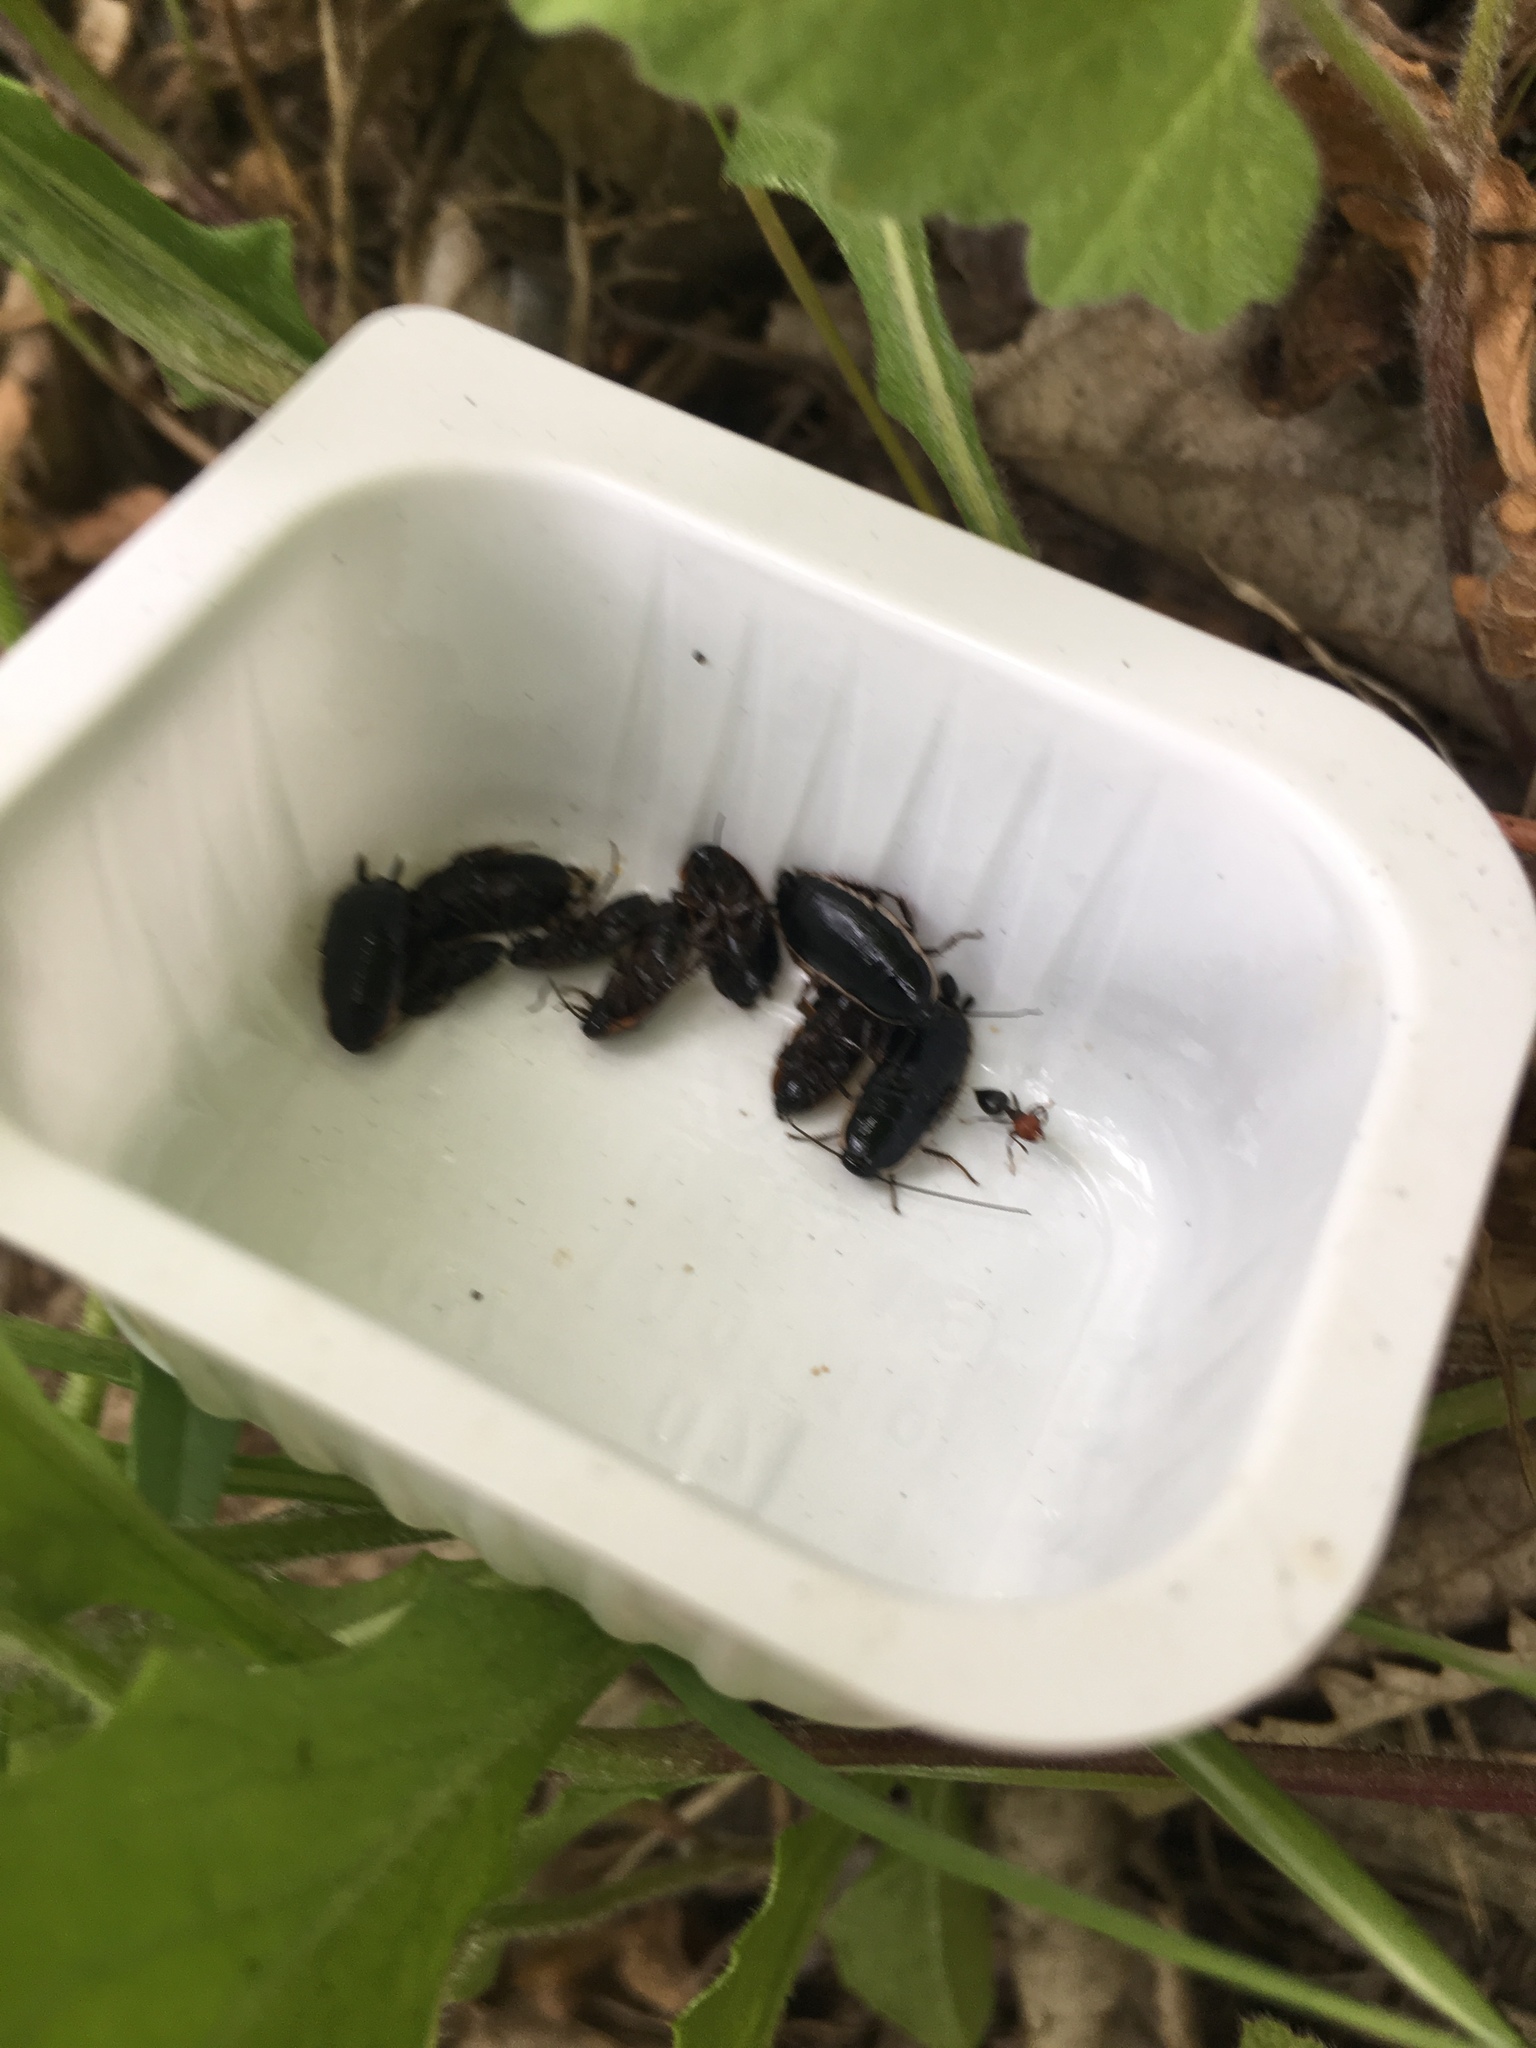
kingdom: Animalia
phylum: Arthropoda
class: Insecta
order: Blattodea
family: Ectobiidae
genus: Loboptera
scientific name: Loboptera decipiens
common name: Lobe-winged cockroach
